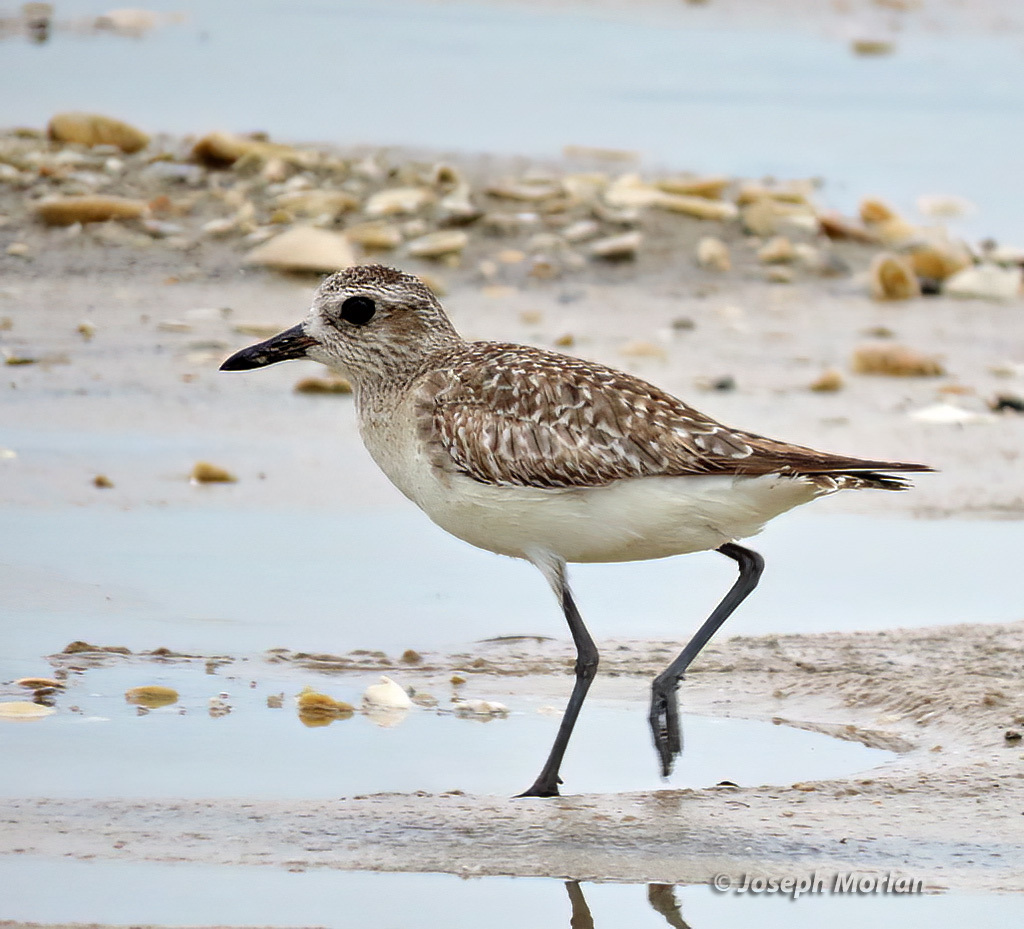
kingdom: Animalia
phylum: Chordata
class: Aves
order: Charadriiformes
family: Charadriidae
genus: Pluvialis
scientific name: Pluvialis squatarola
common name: Grey plover
